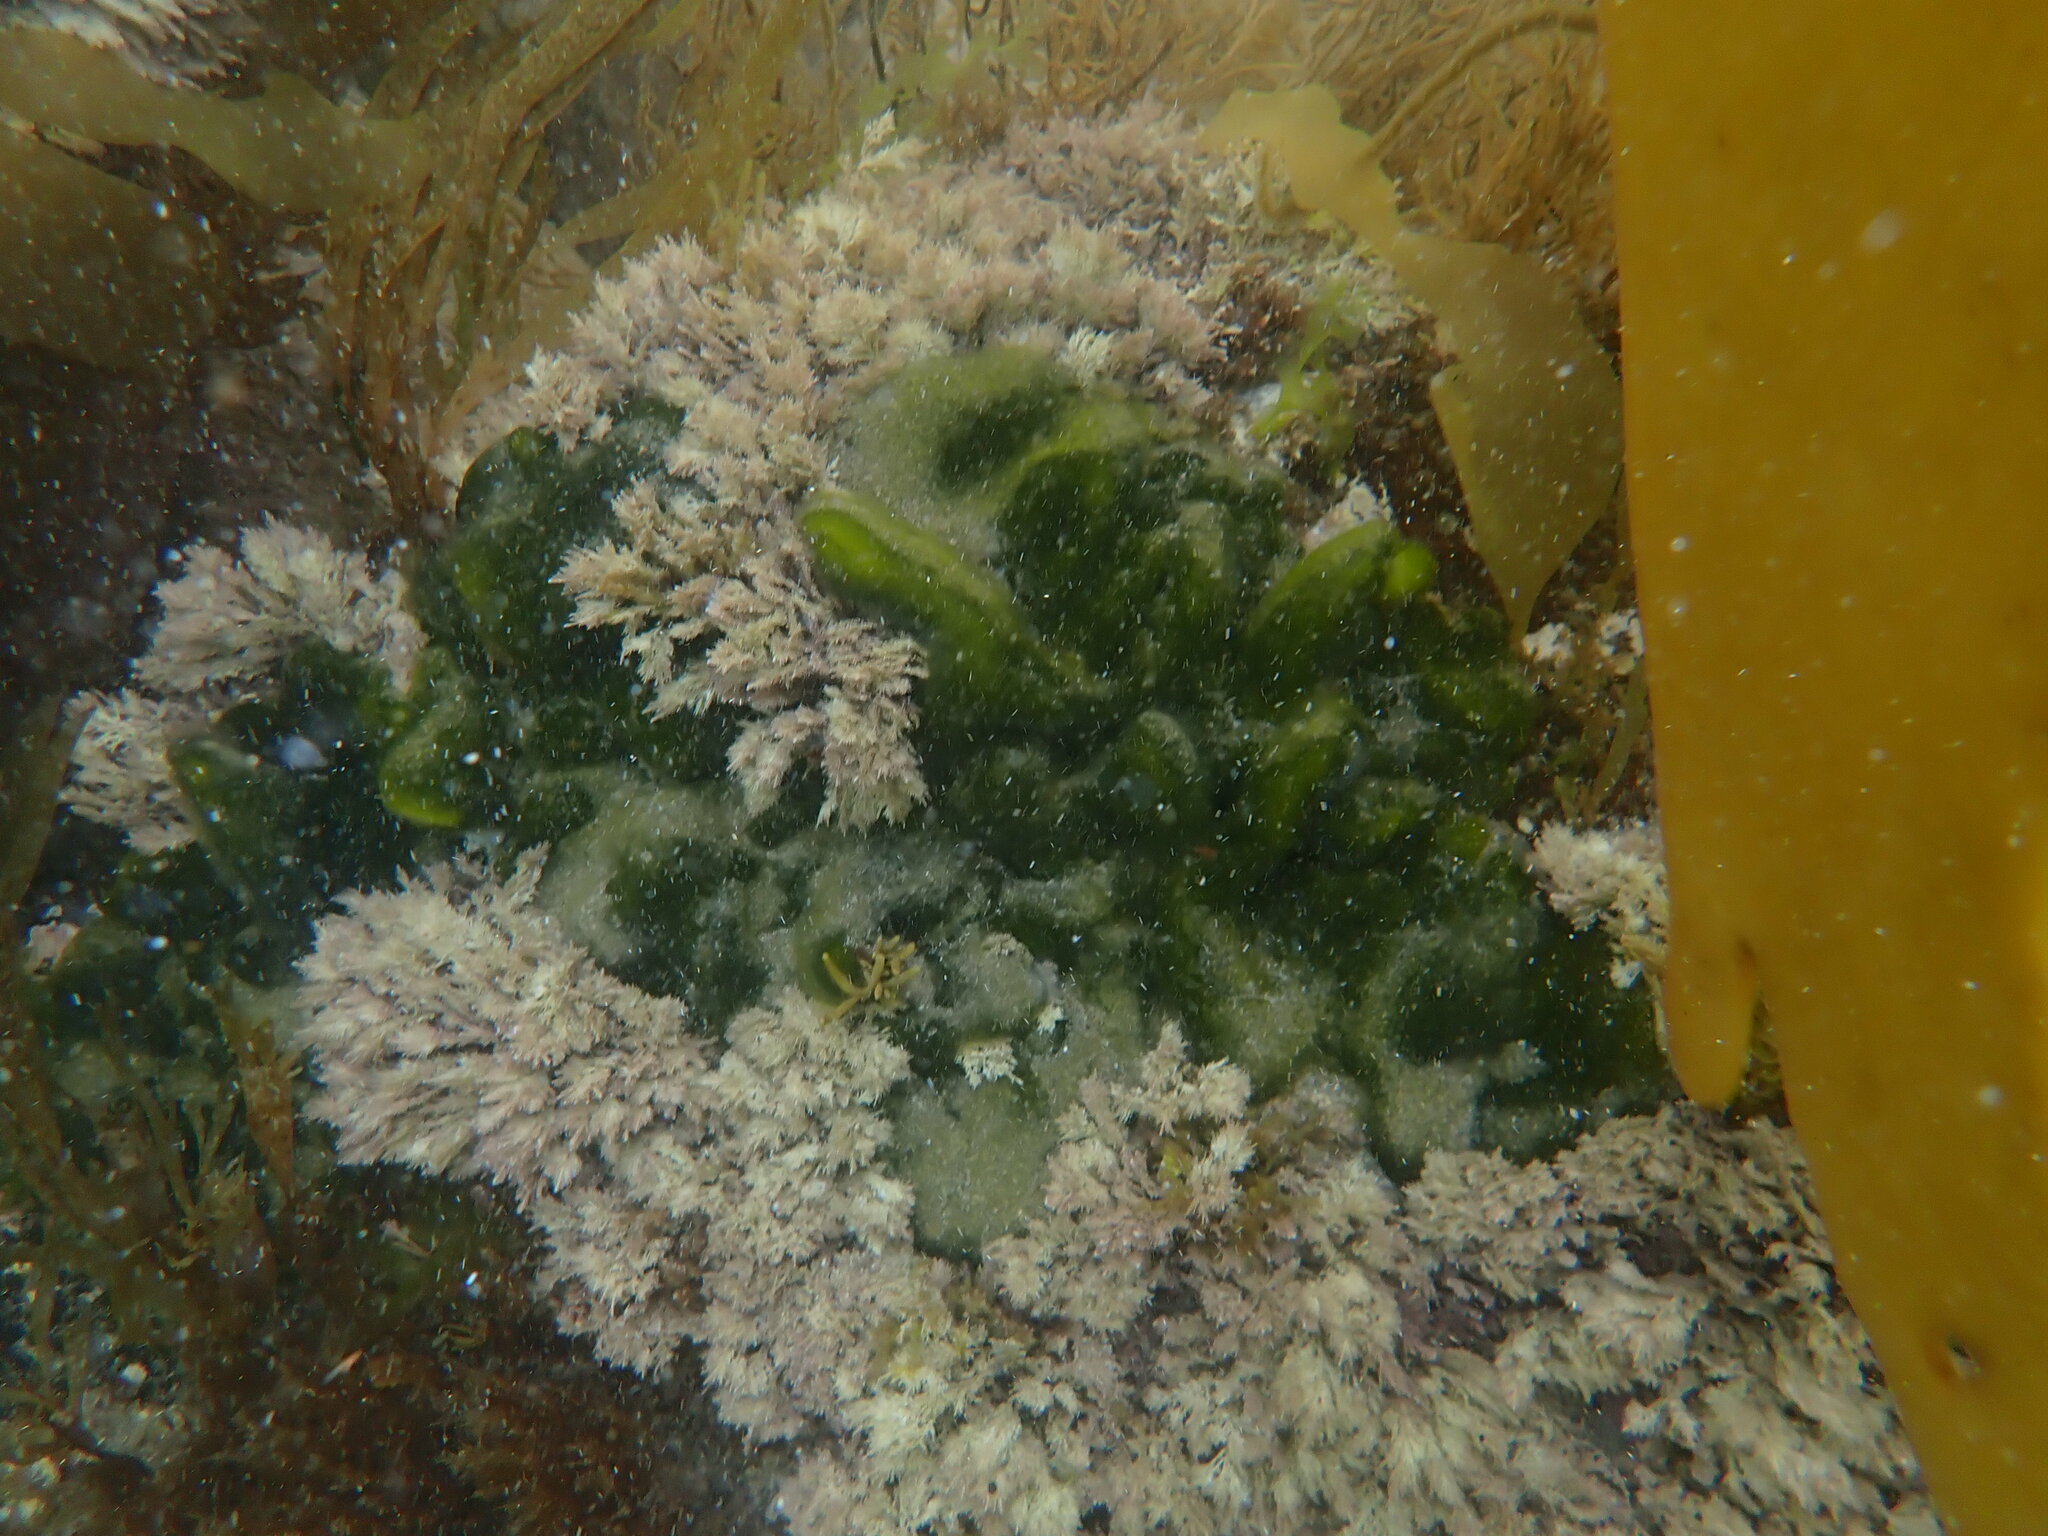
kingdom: Plantae
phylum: Chlorophyta
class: Ulvophyceae
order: Bryopsidales
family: Codiaceae
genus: Codium
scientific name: Codium convolutum
